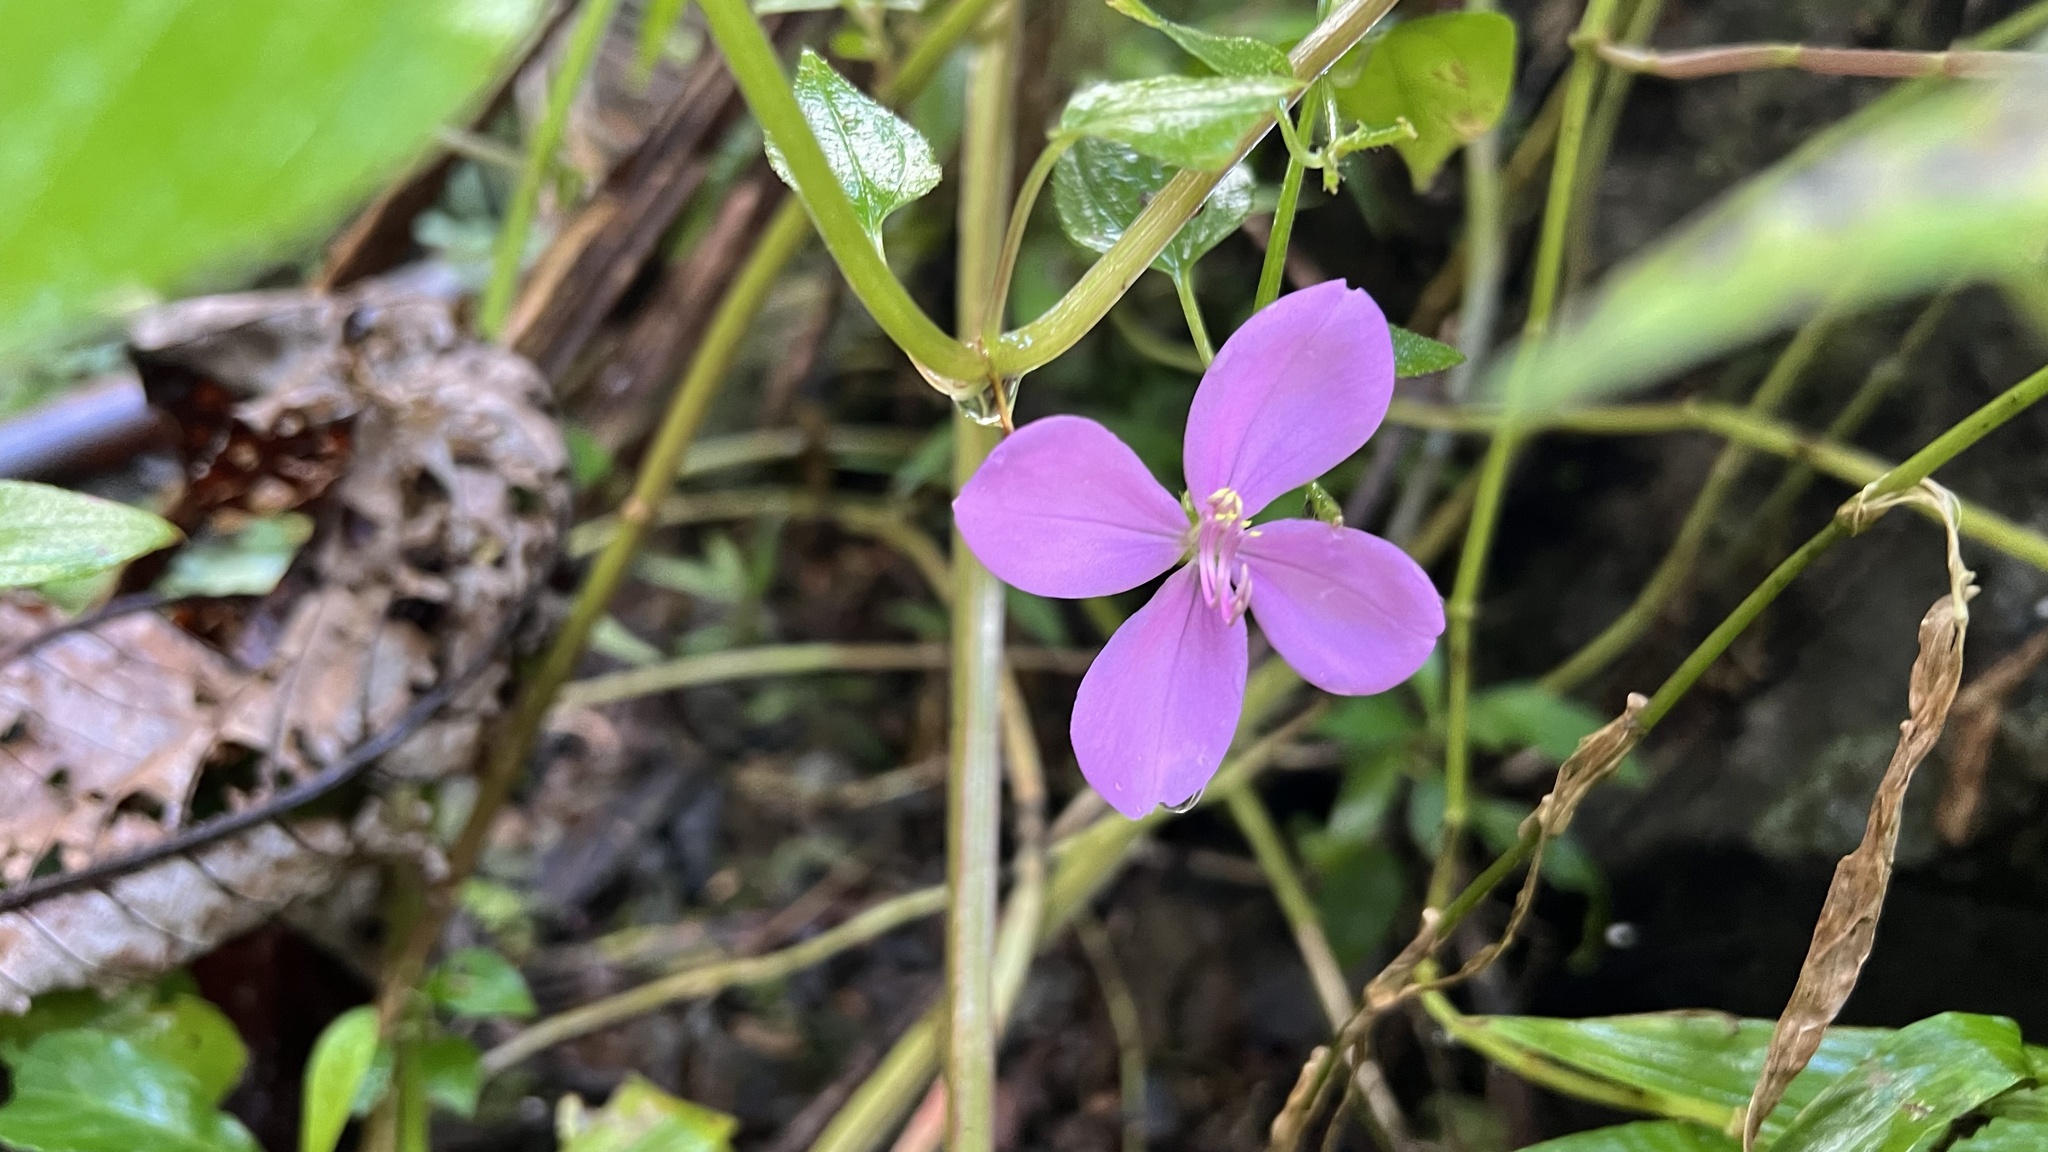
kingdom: Plantae
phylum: Tracheophyta
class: Magnoliopsida
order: Myrtales
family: Melastomataceae
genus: Arthrostemma
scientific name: Arthrostemma ciliatum
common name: Everblooming eavender
